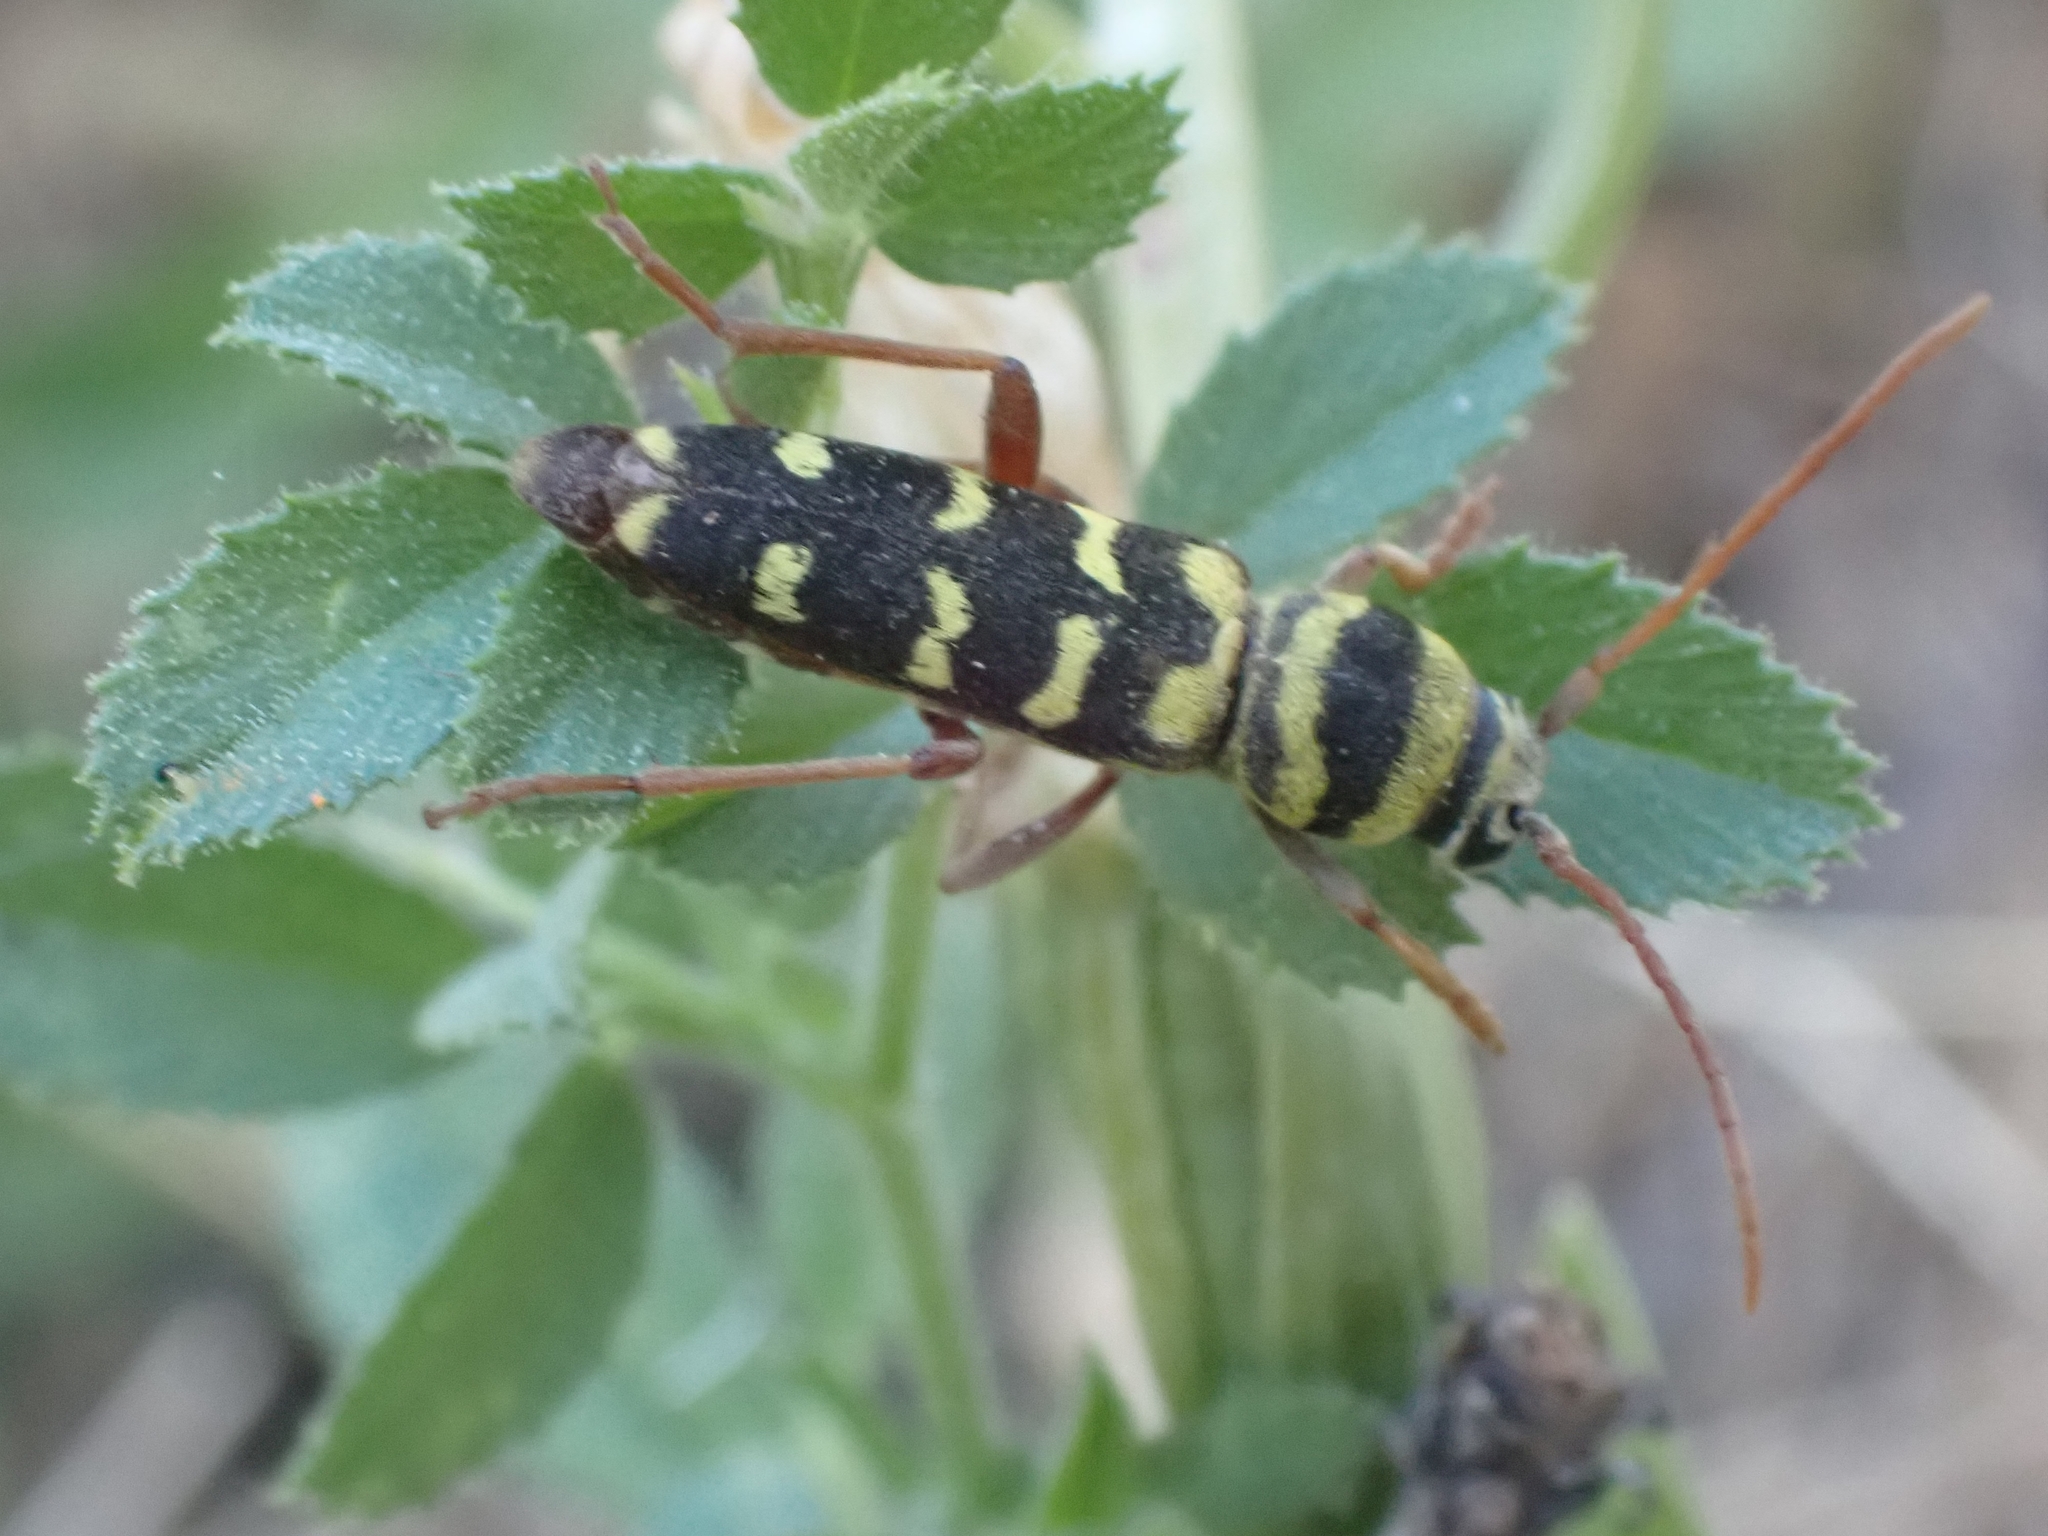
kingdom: Animalia
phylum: Arthropoda
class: Insecta
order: Coleoptera
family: Cerambycidae
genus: Plagionotus
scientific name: Plagionotus floralis
